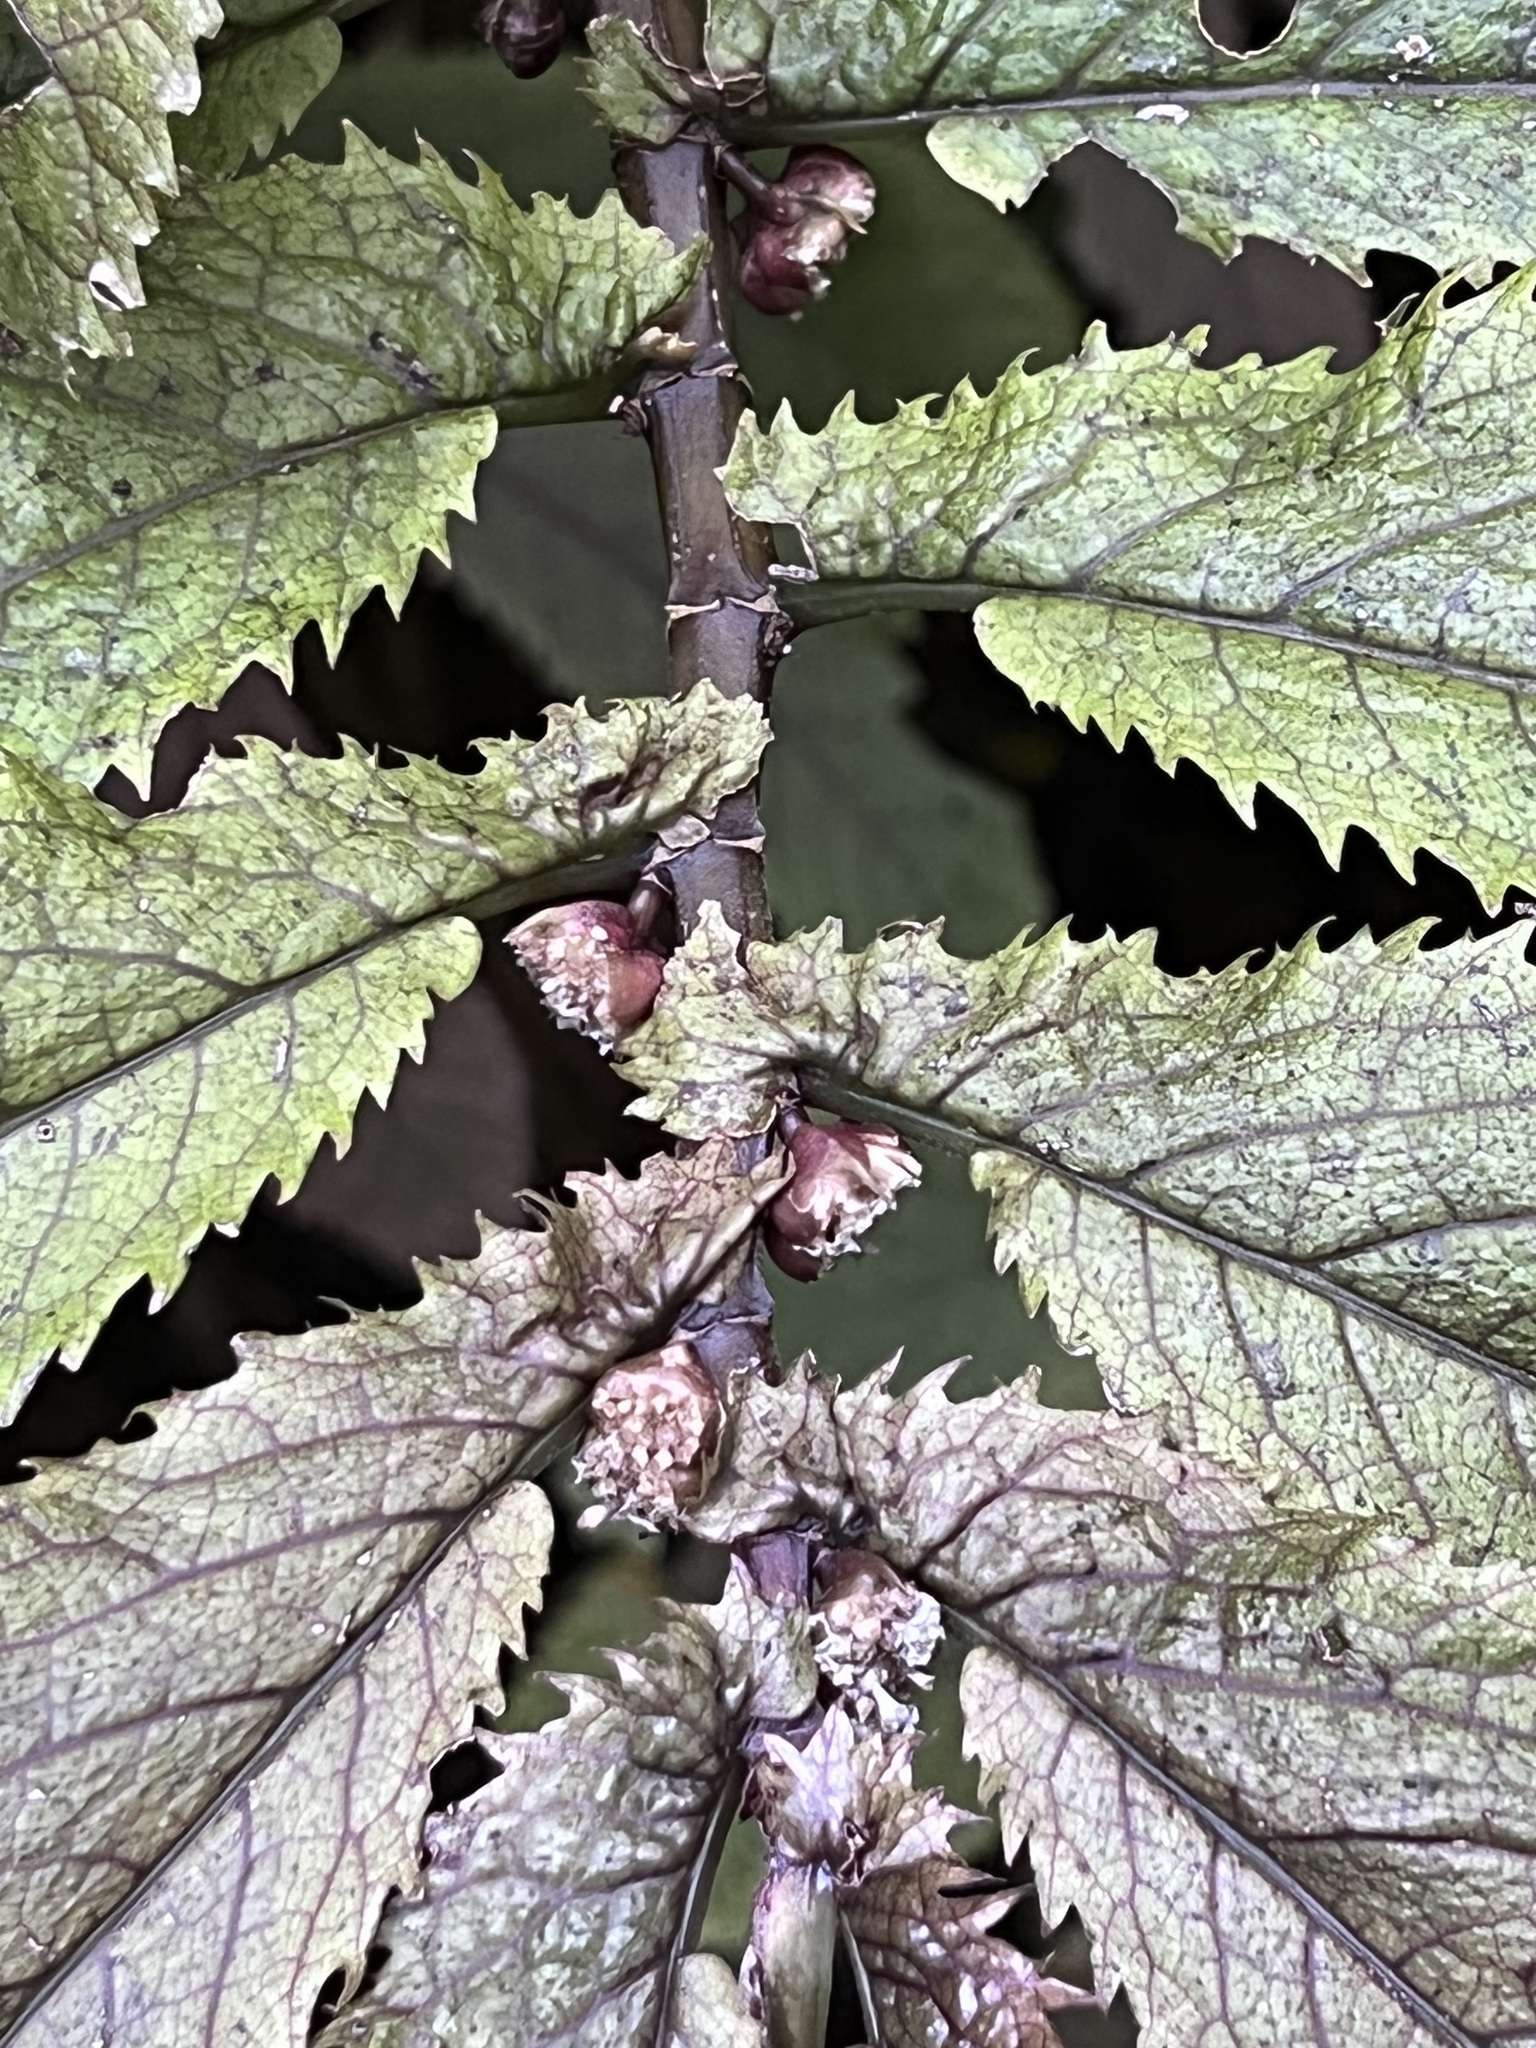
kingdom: Plantae
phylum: Tracheophyta
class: Magnoliopsida
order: Rosales
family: Urticaceae
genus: Elatostema
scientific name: Elatostema rugosum
